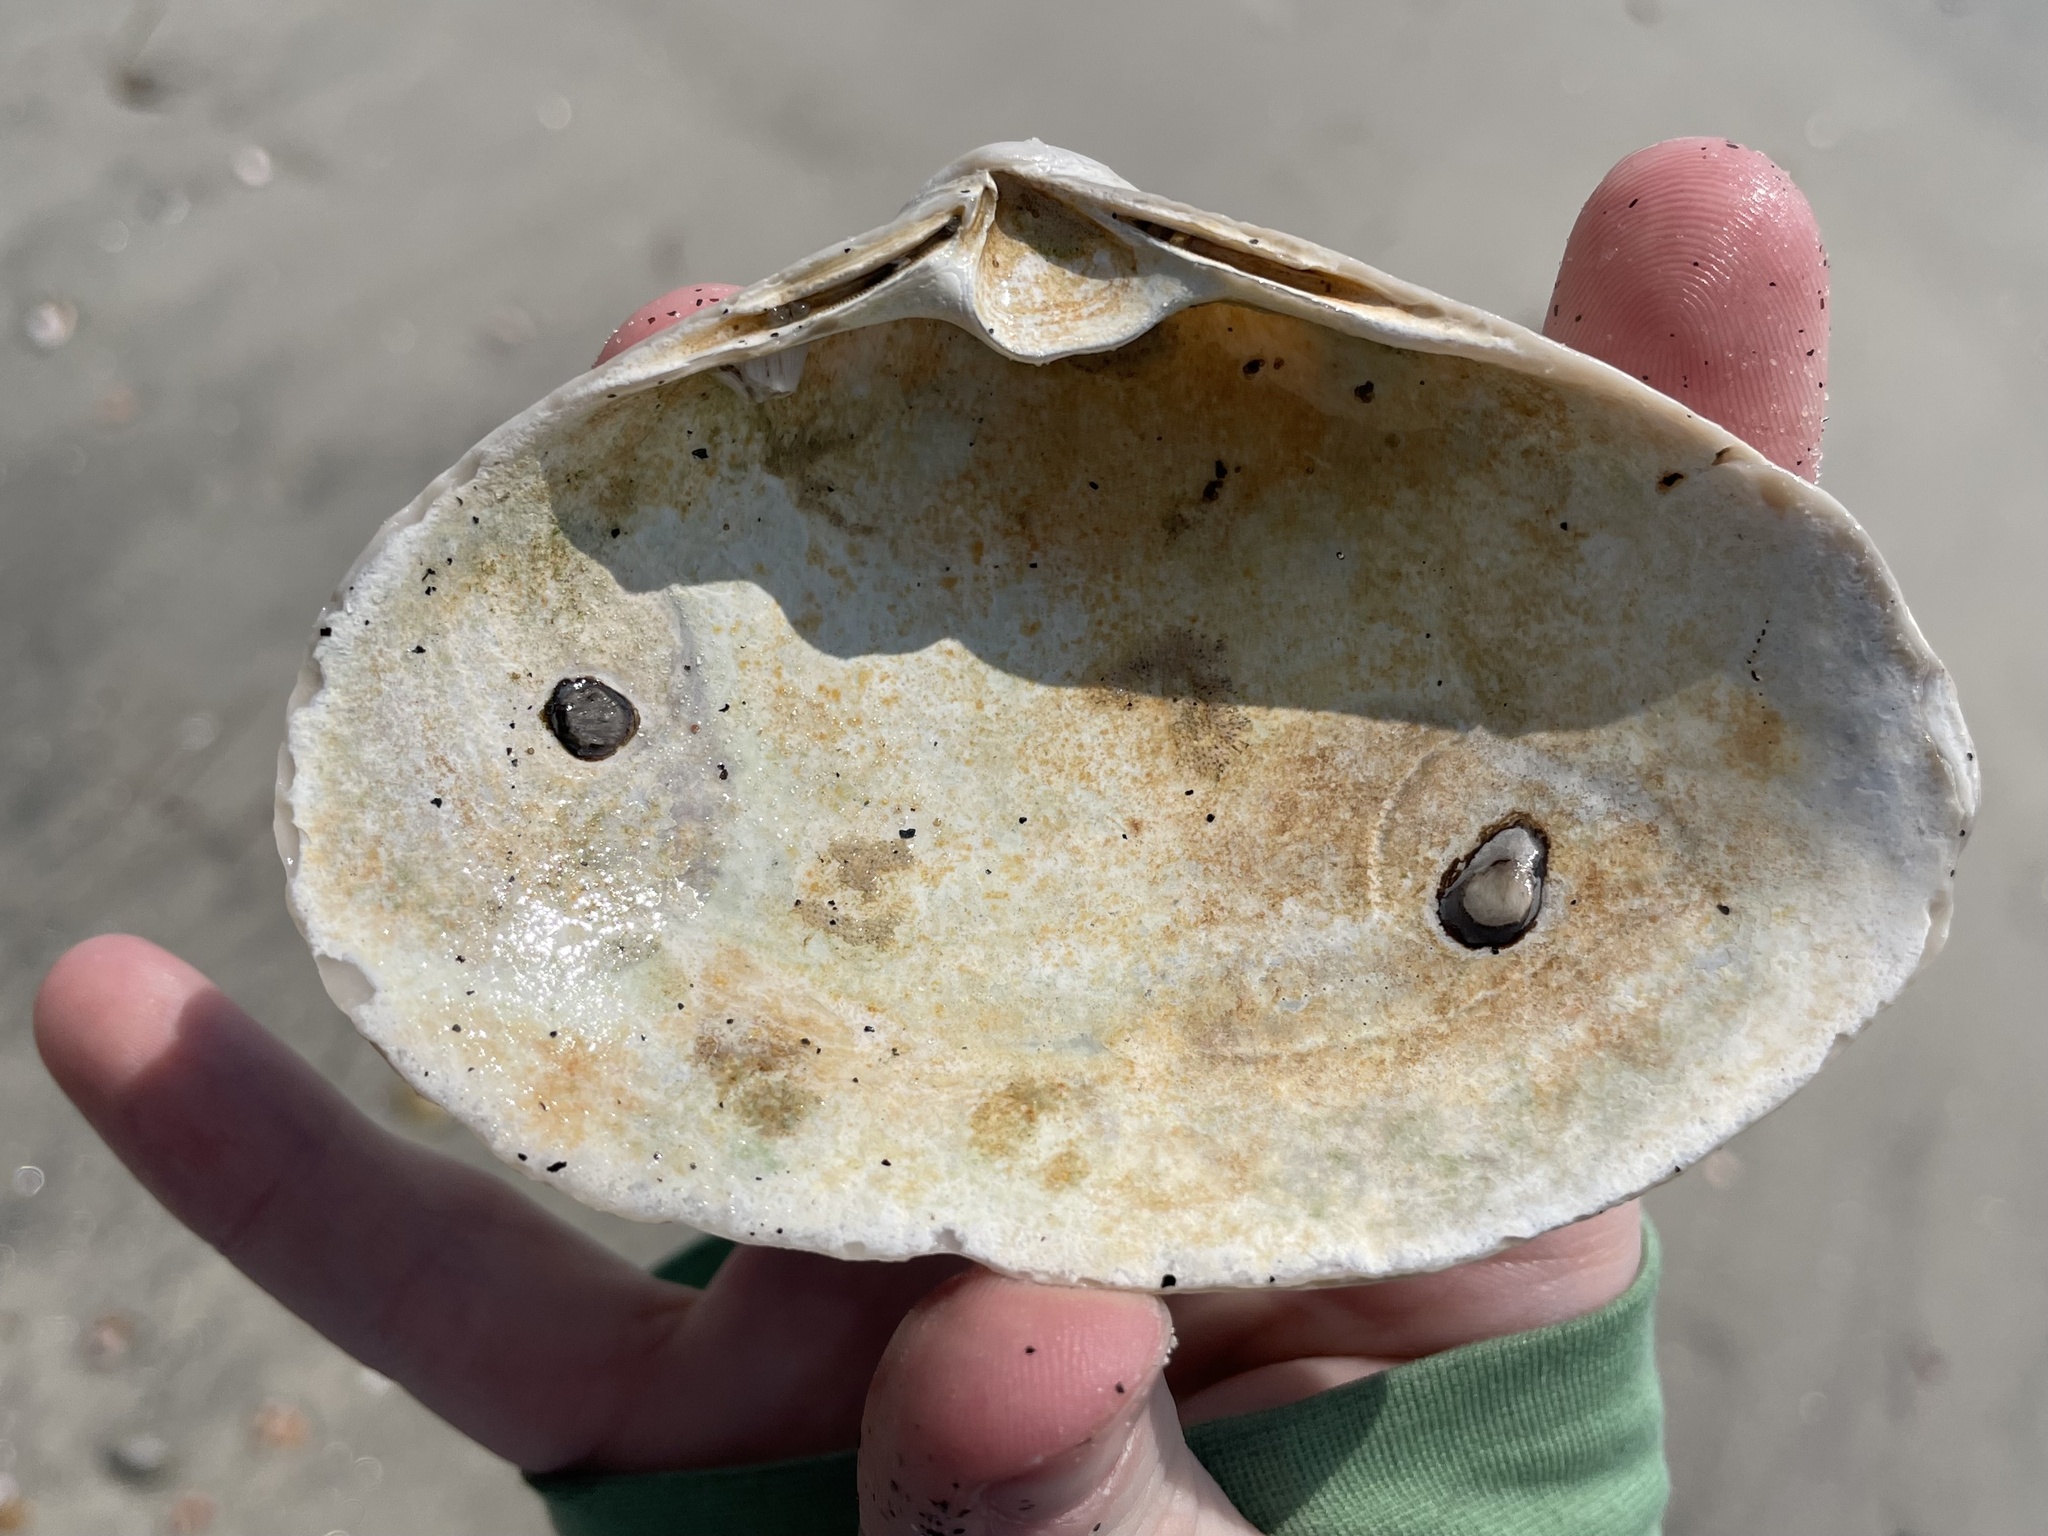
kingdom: Animalia
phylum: Mollusca
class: Bivalvia
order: Venerida
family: Mactridae
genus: Spisula
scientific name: Spisula solidissima
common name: Atlantic surf clam
